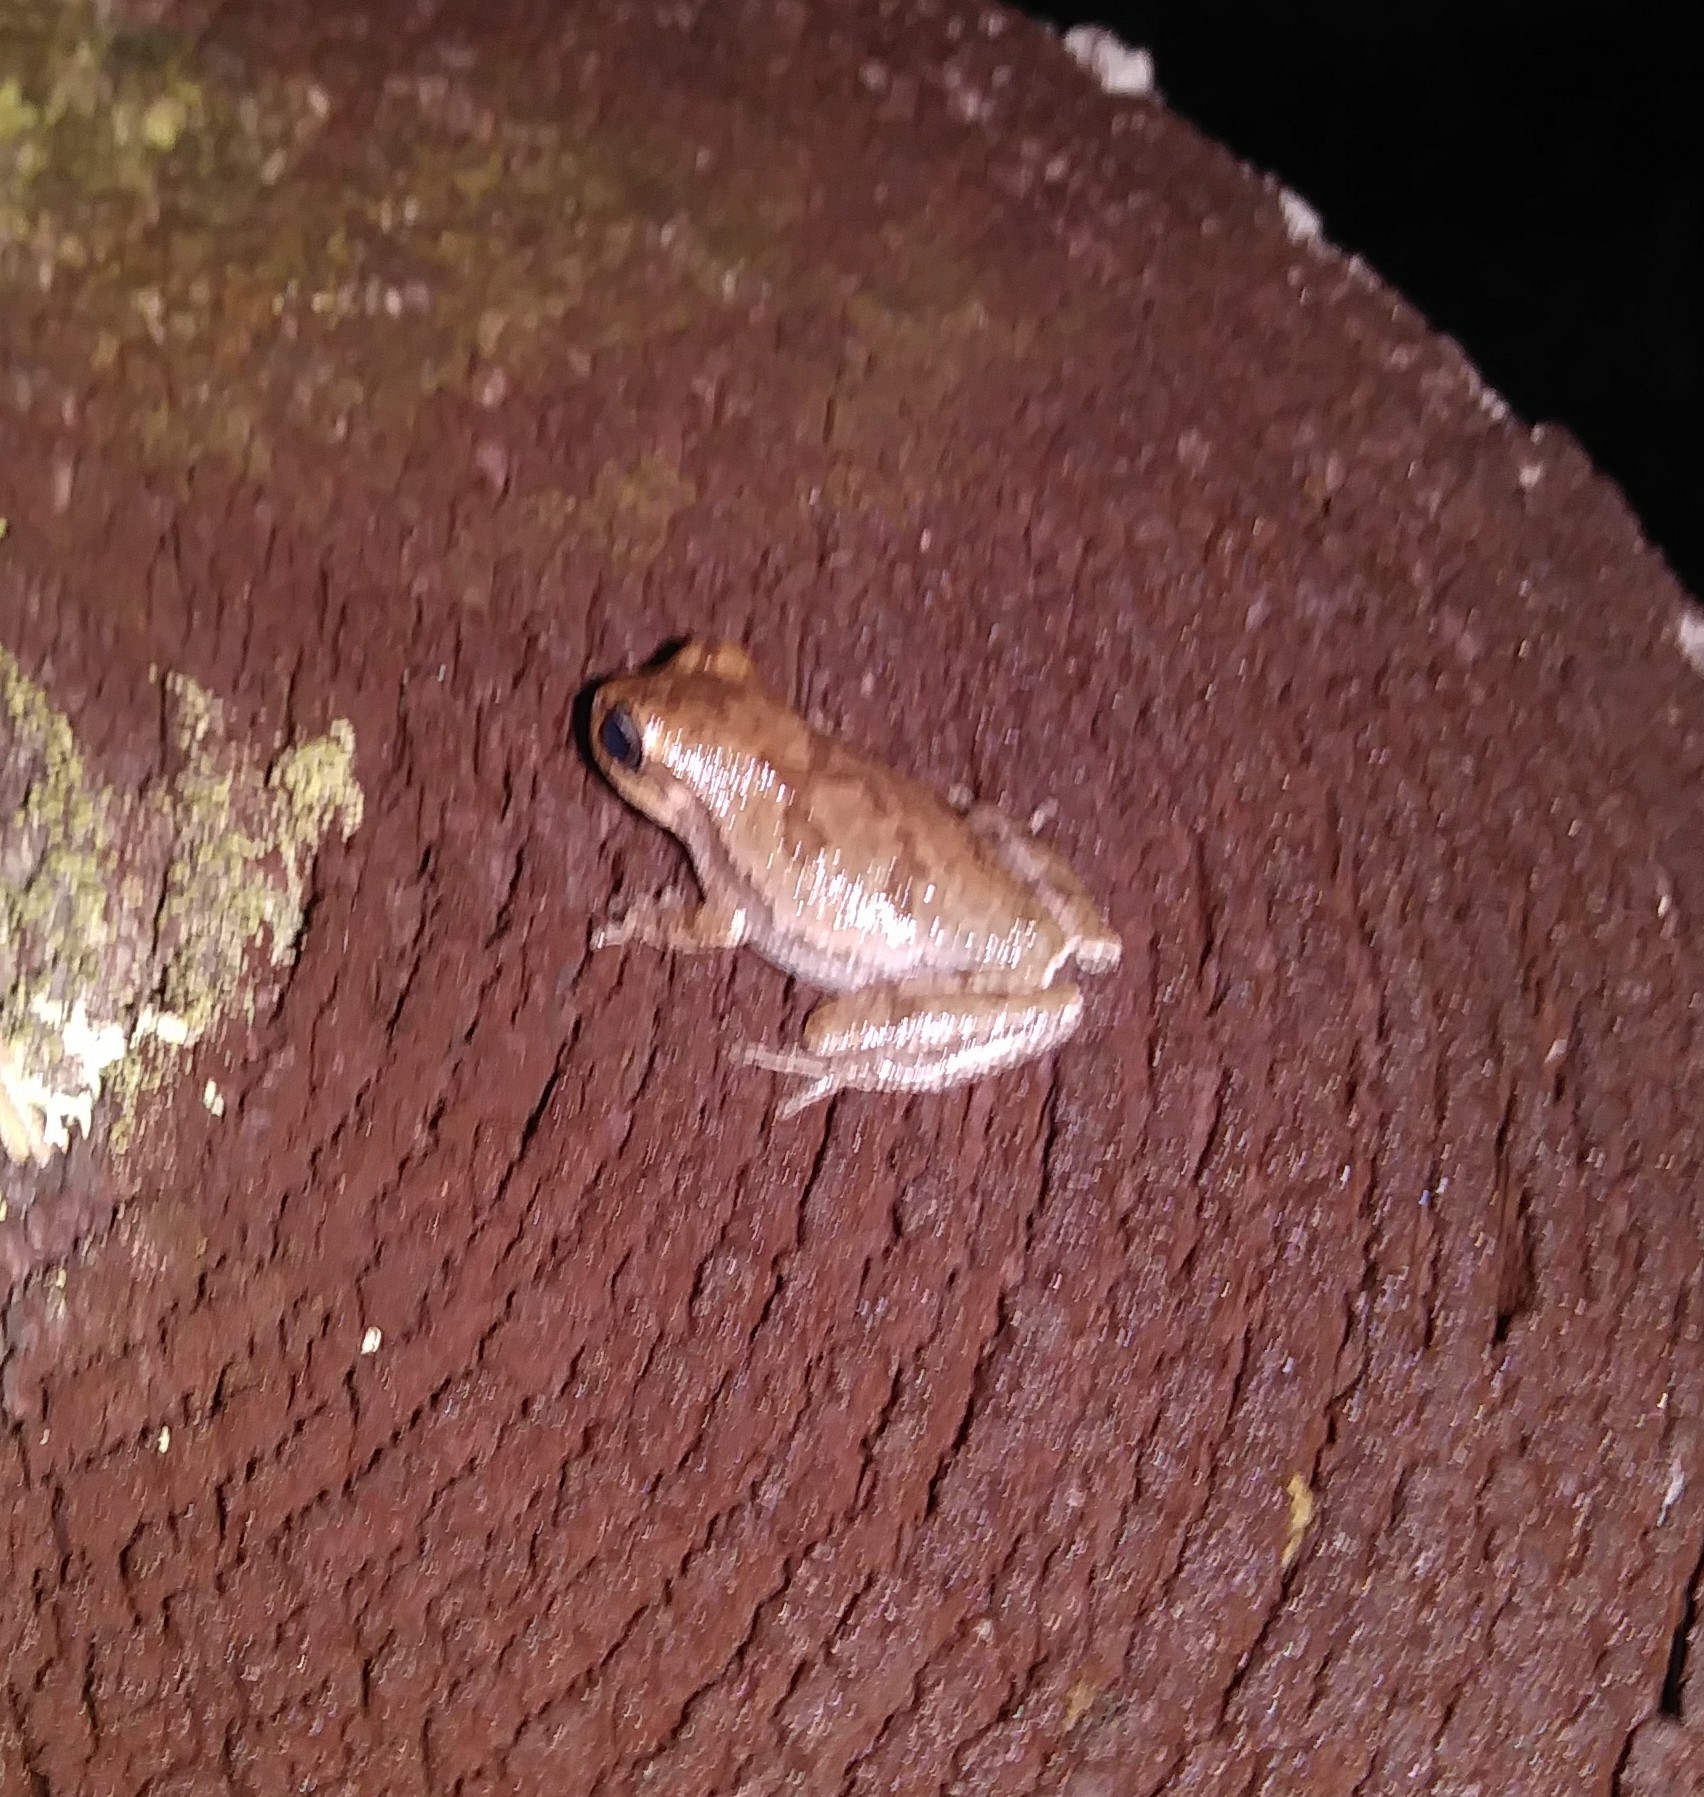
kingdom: Animalia
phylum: Chordata
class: Amphibia
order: Anura
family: Hylidae
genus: Hyla
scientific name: Hyla femoralis
